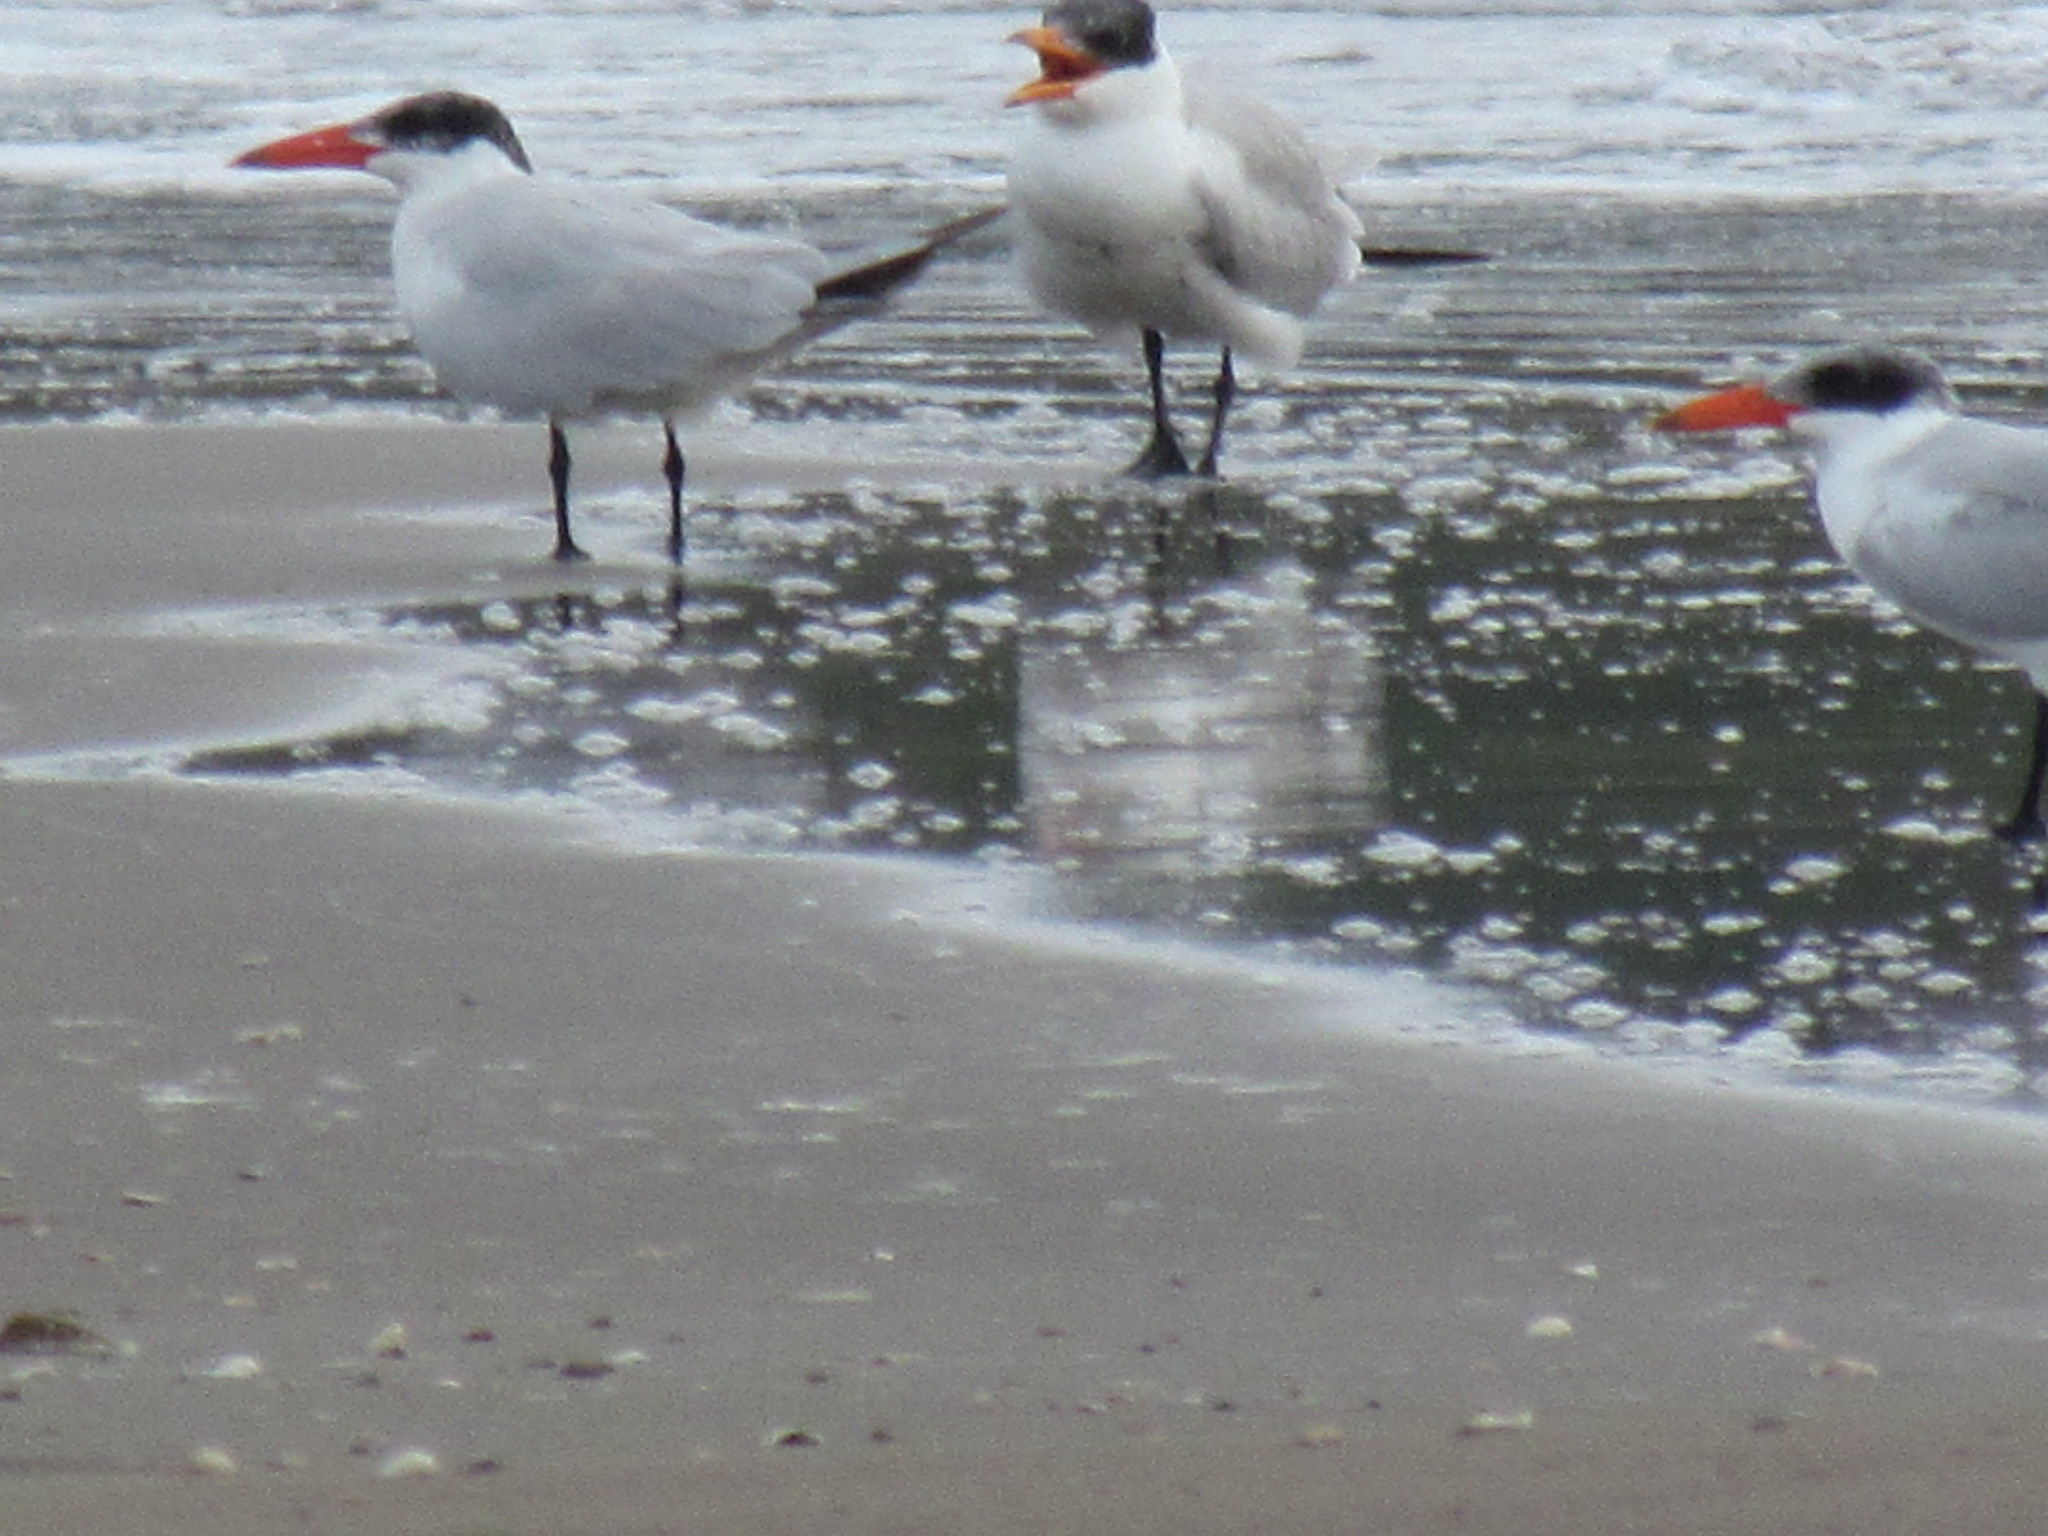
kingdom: Animalia
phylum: Chordata
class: Aves
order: Charadriiformes
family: Laridae
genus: Hydroprogne
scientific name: Hydroprogne caspia
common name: Caspian tern
